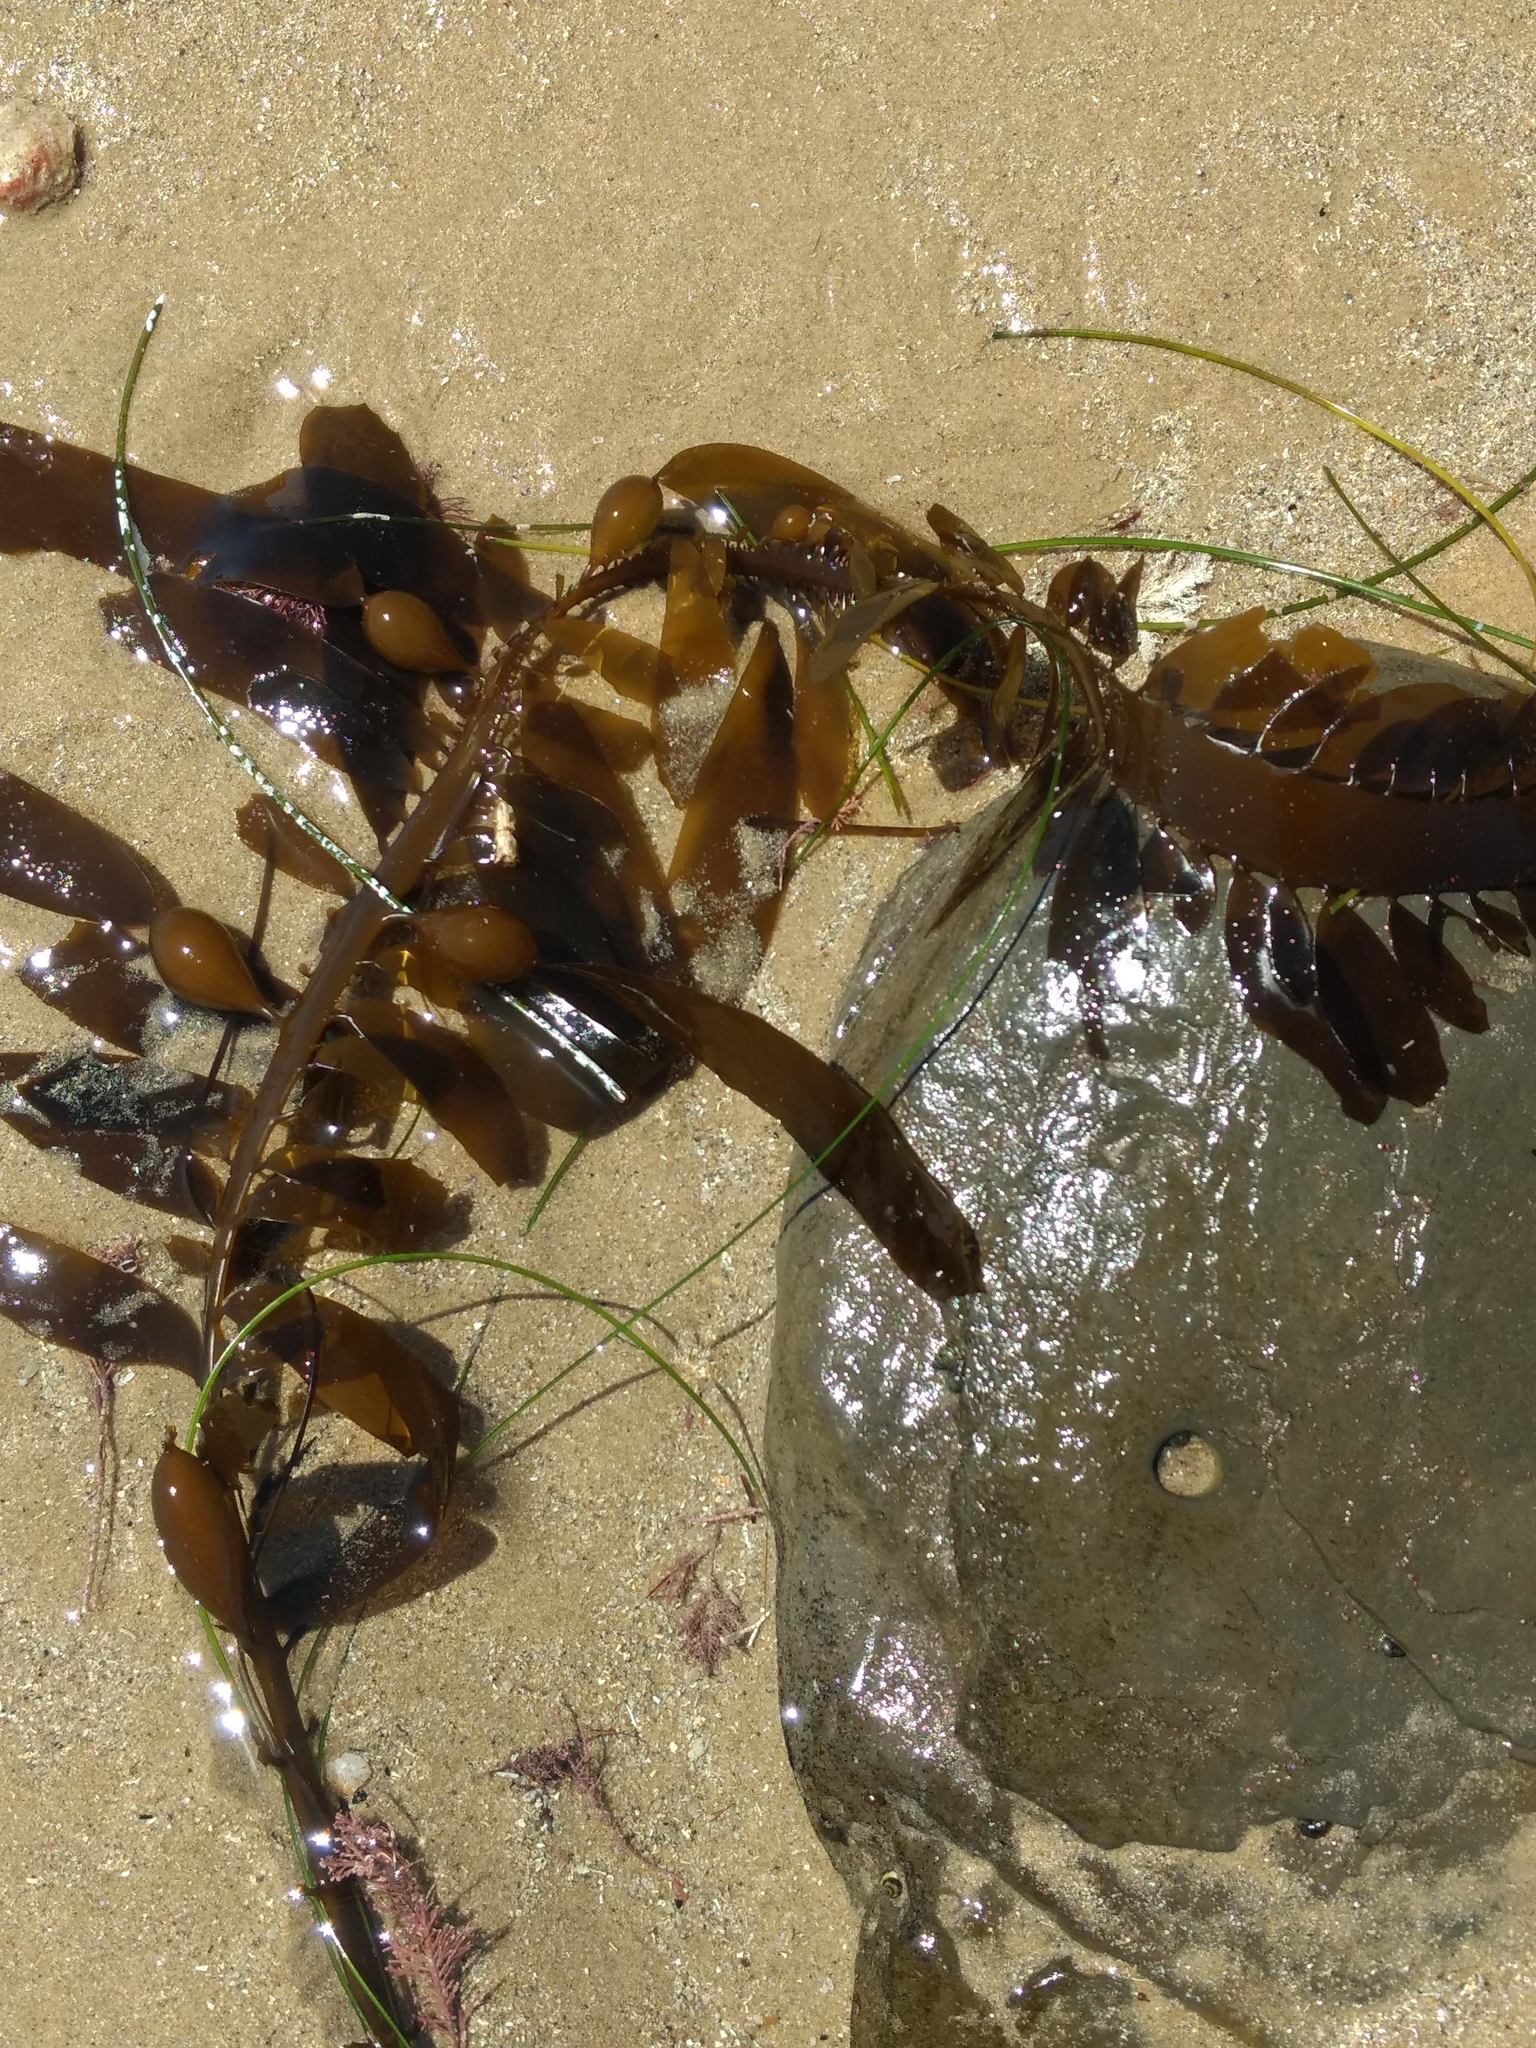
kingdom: Chromista
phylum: Ochrophyta
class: Phaeophyceae
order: Laminariales
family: Lessoniaceae
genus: Egregia
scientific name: Egregia menziesii
